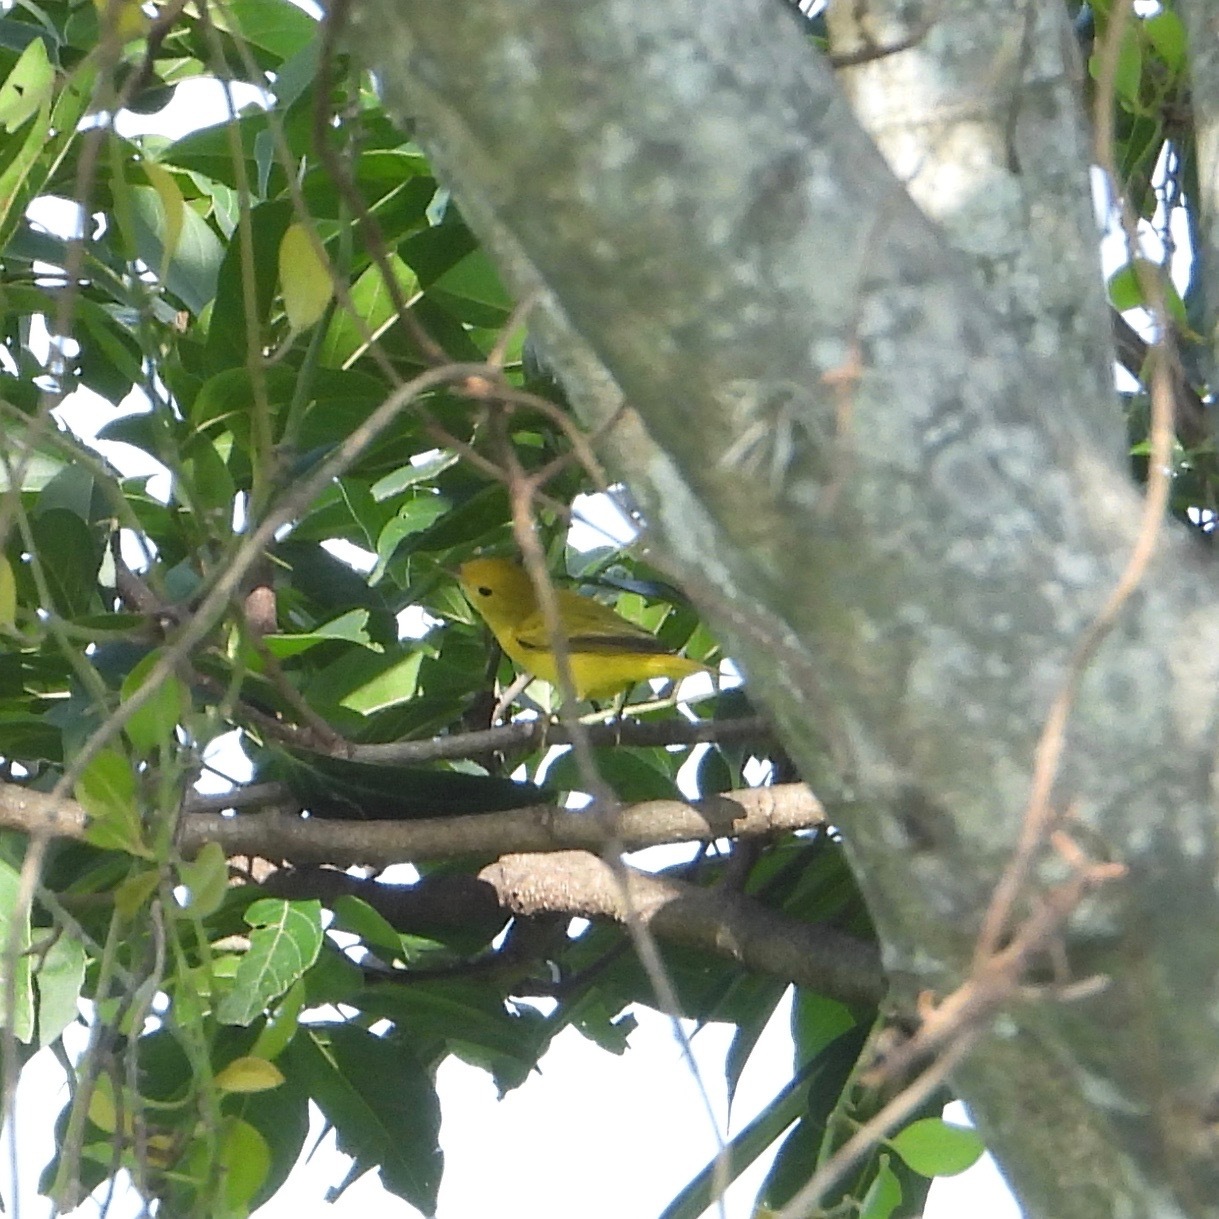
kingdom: Animalia
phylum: Chordata
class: Aves
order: Passeriformes
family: Parulidae
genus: Setophaga
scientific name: Setophaga petechia
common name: Yellow warbler
